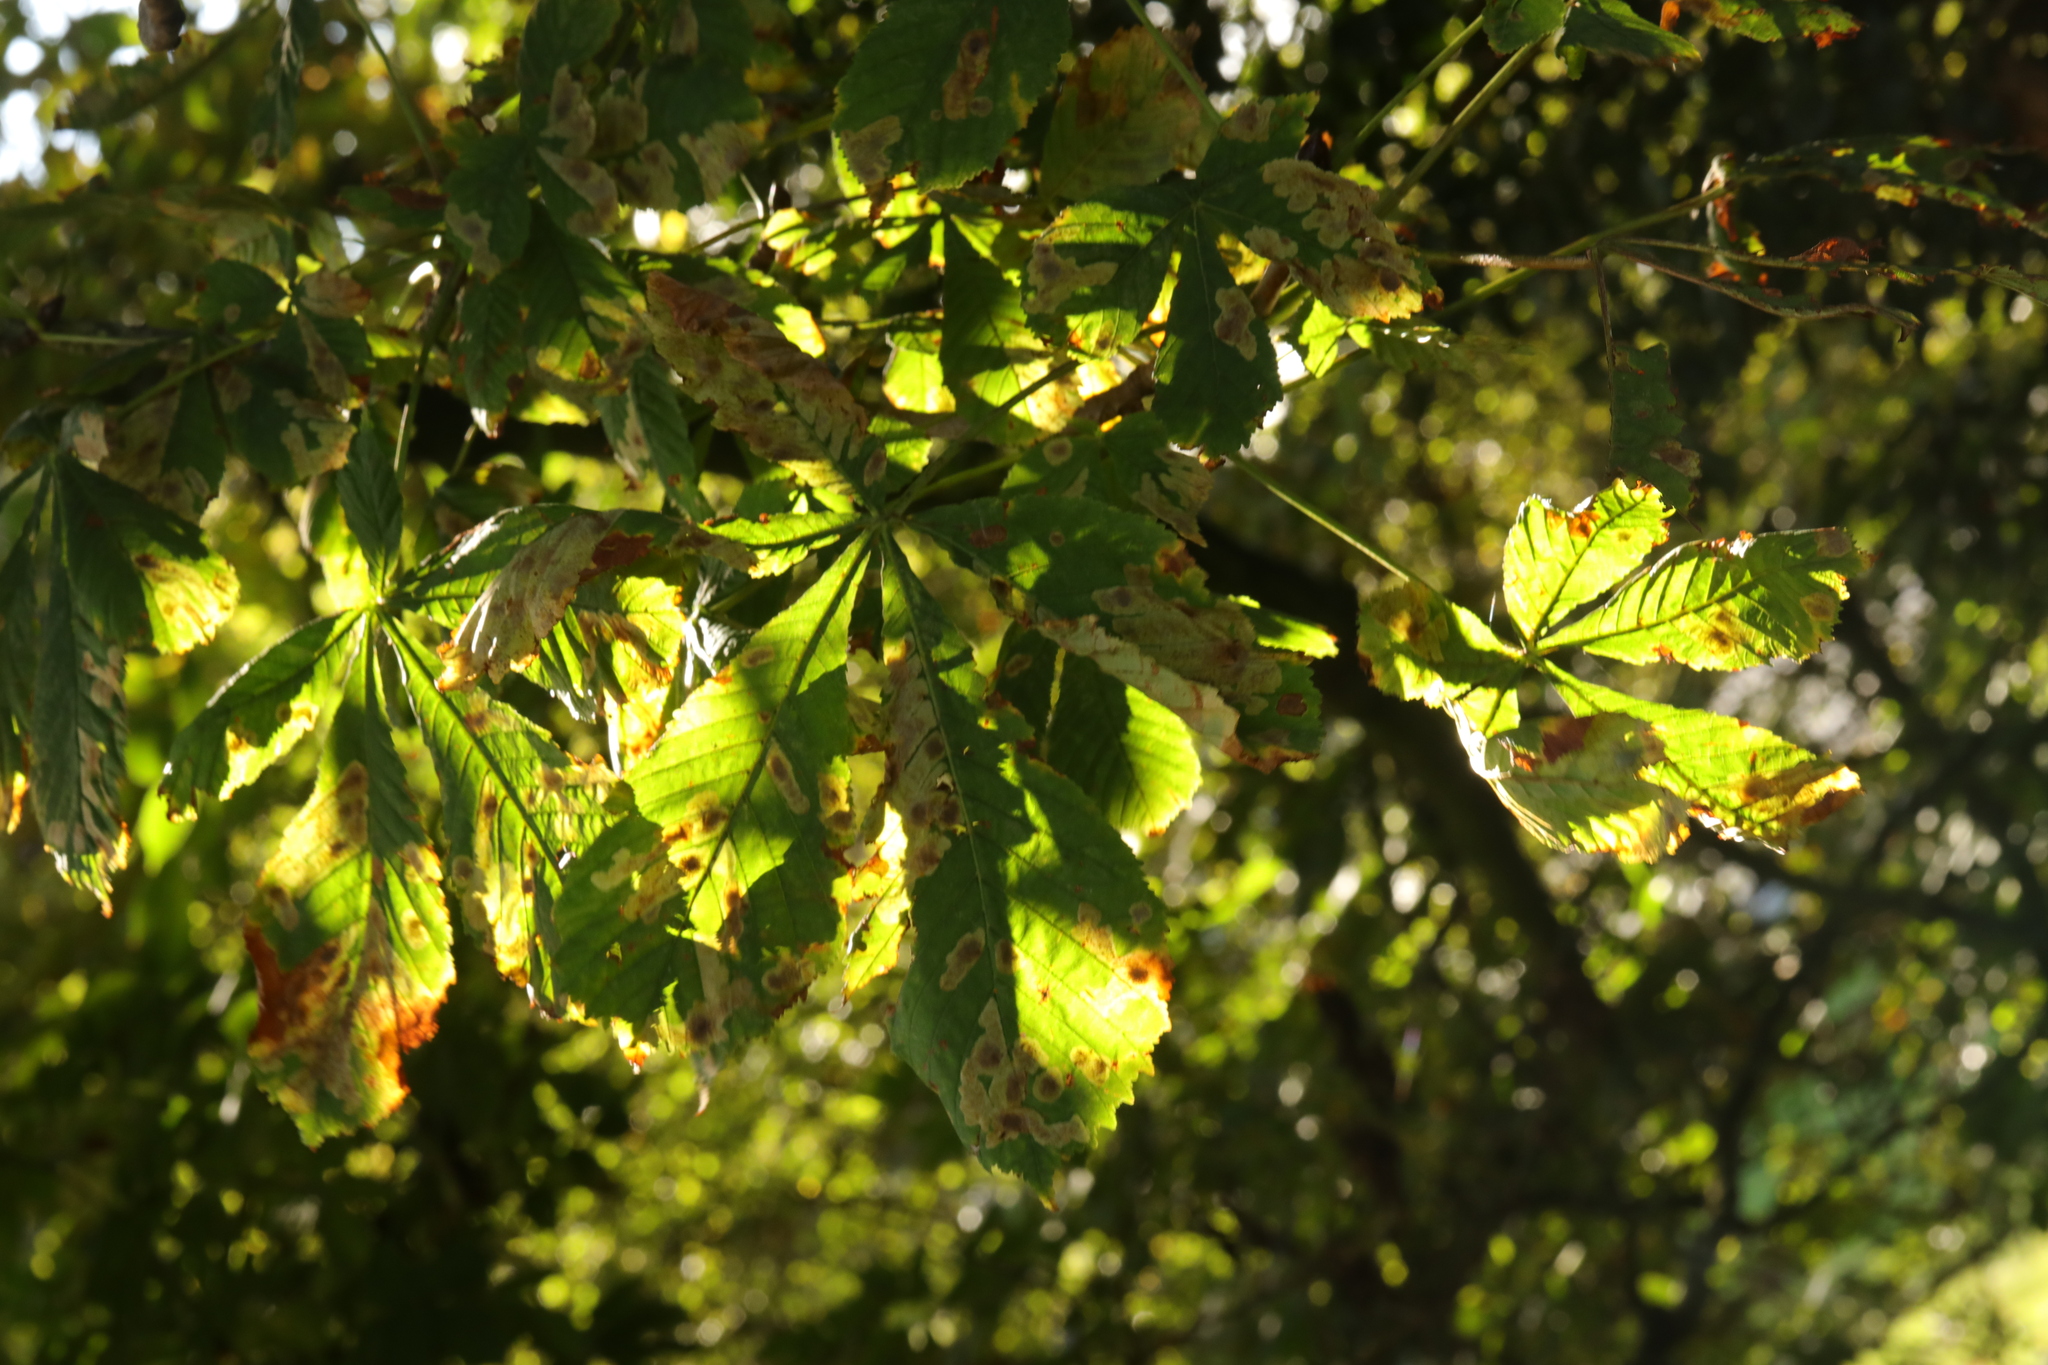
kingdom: Plantae
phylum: Tracheophyta
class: Magnoliopsida
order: Sapindales
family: Sapindaceae
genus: Aesculus
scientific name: Aesculus hippocastanum
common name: Horse-chestnut
